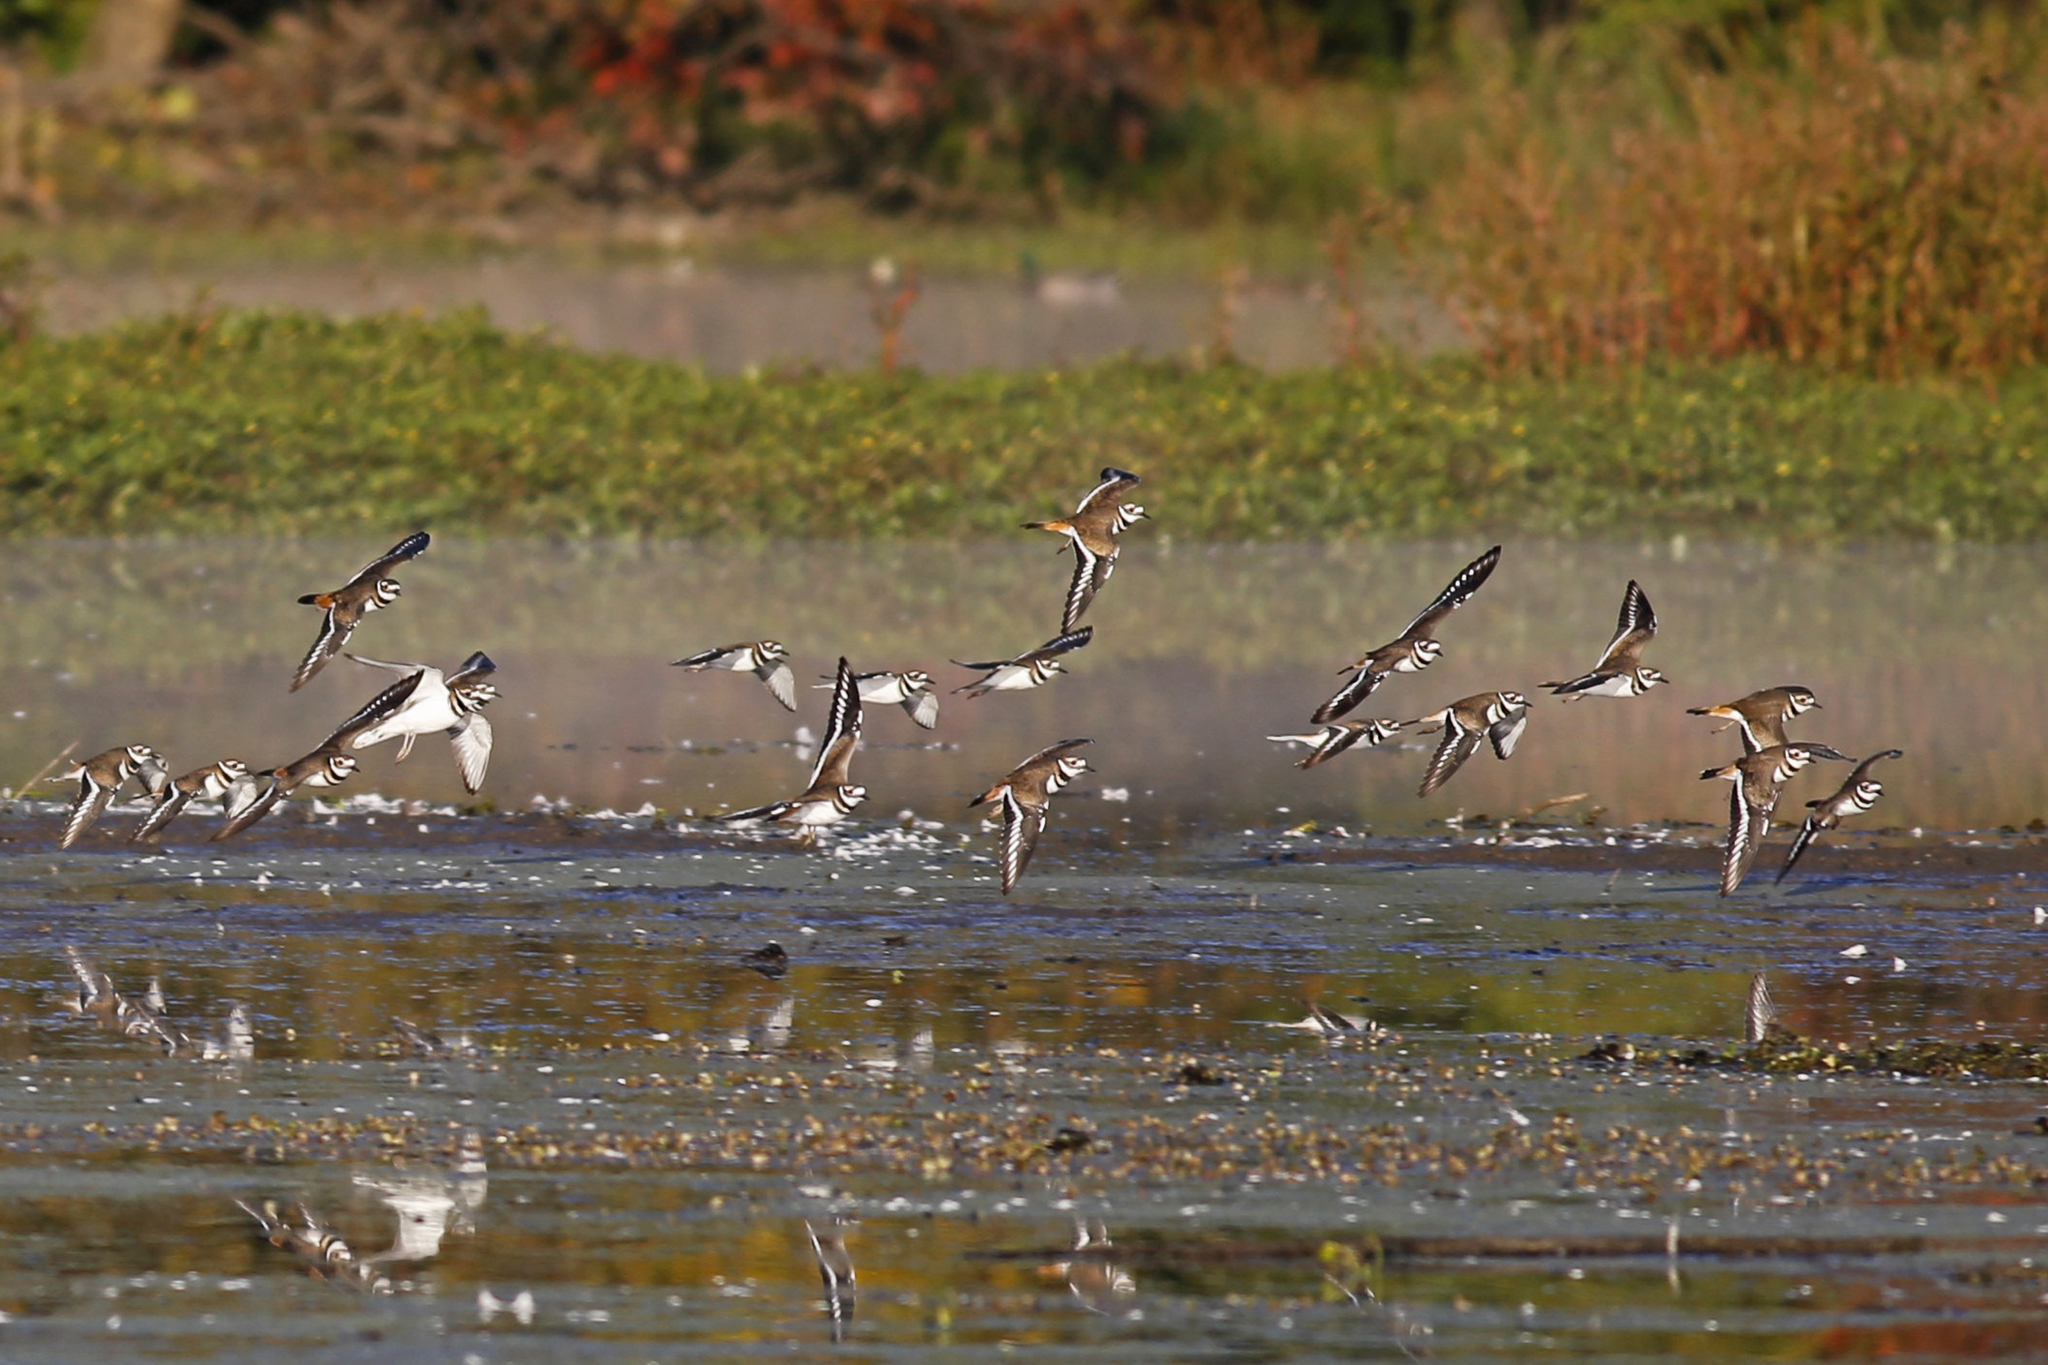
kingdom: Animalia
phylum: Chordata
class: Aves
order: Charadriiformes
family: Charadriidae
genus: Charadrius
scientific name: Charadrius vociferus
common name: Killdeer
